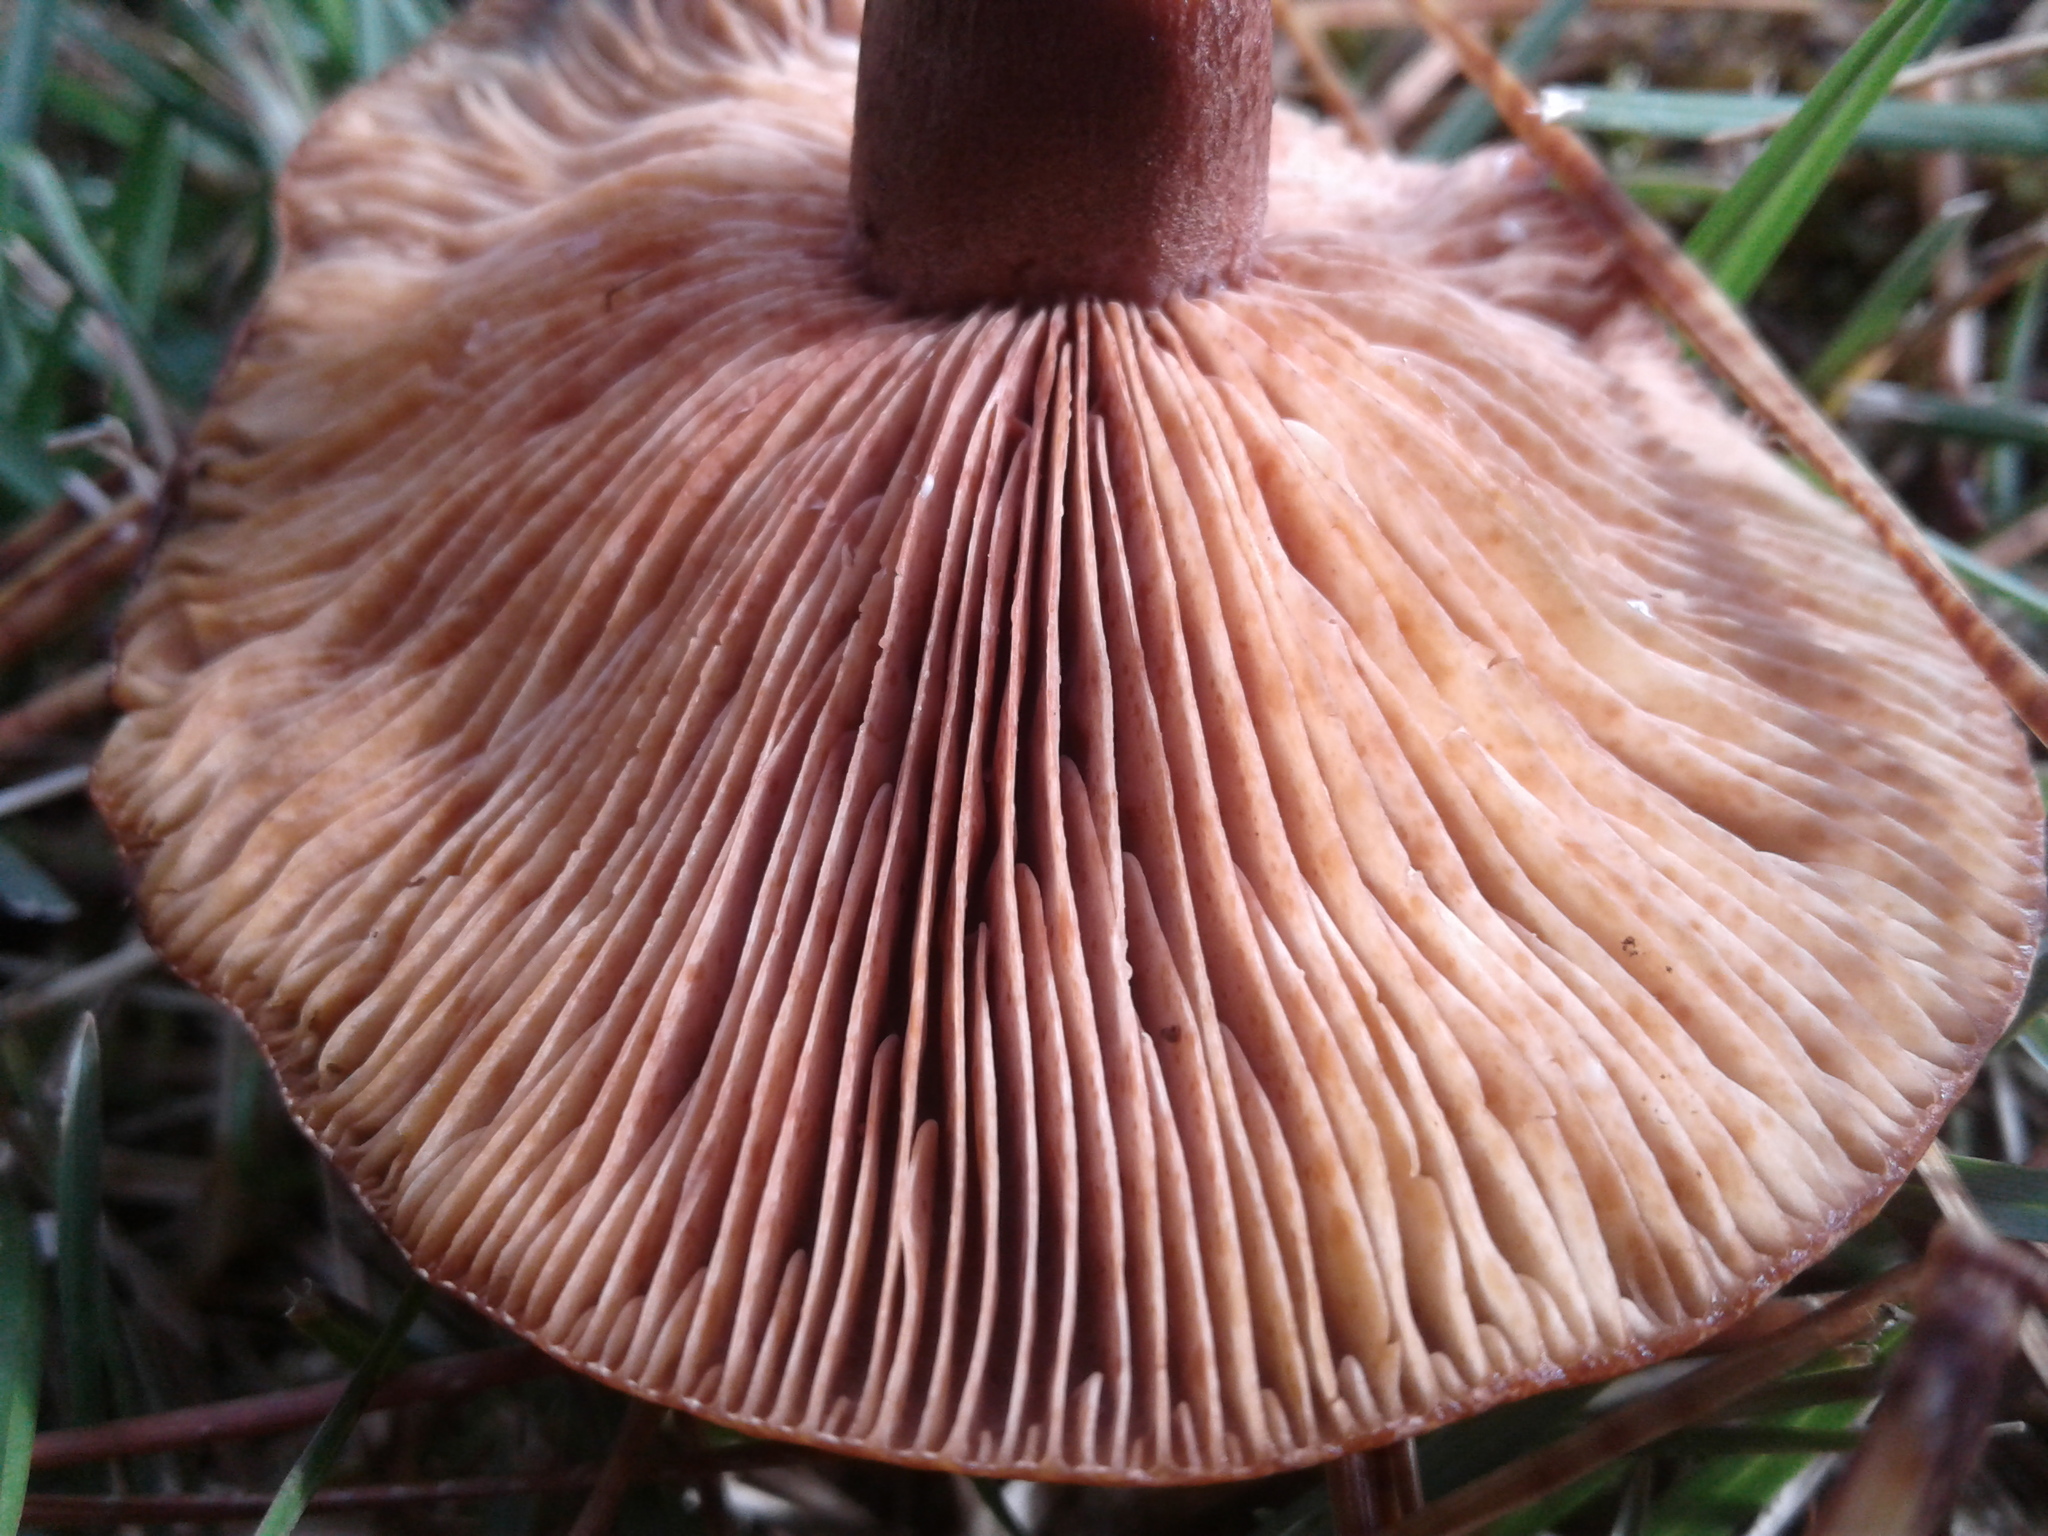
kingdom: Fungi
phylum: Basidiomycota
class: Agaricomycetes
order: Russulales
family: Russulaceae
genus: Lactarius
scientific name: Lactarius rufus
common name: Rufous milk-cap
